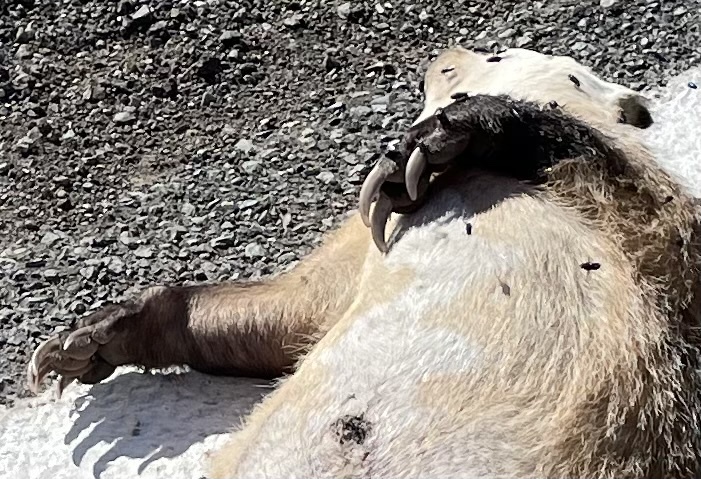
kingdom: Animalia
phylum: Chordata
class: Mammalia
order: Carnivora
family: Mustelidae
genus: Taxidea
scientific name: Taxidea taxus
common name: American badger
